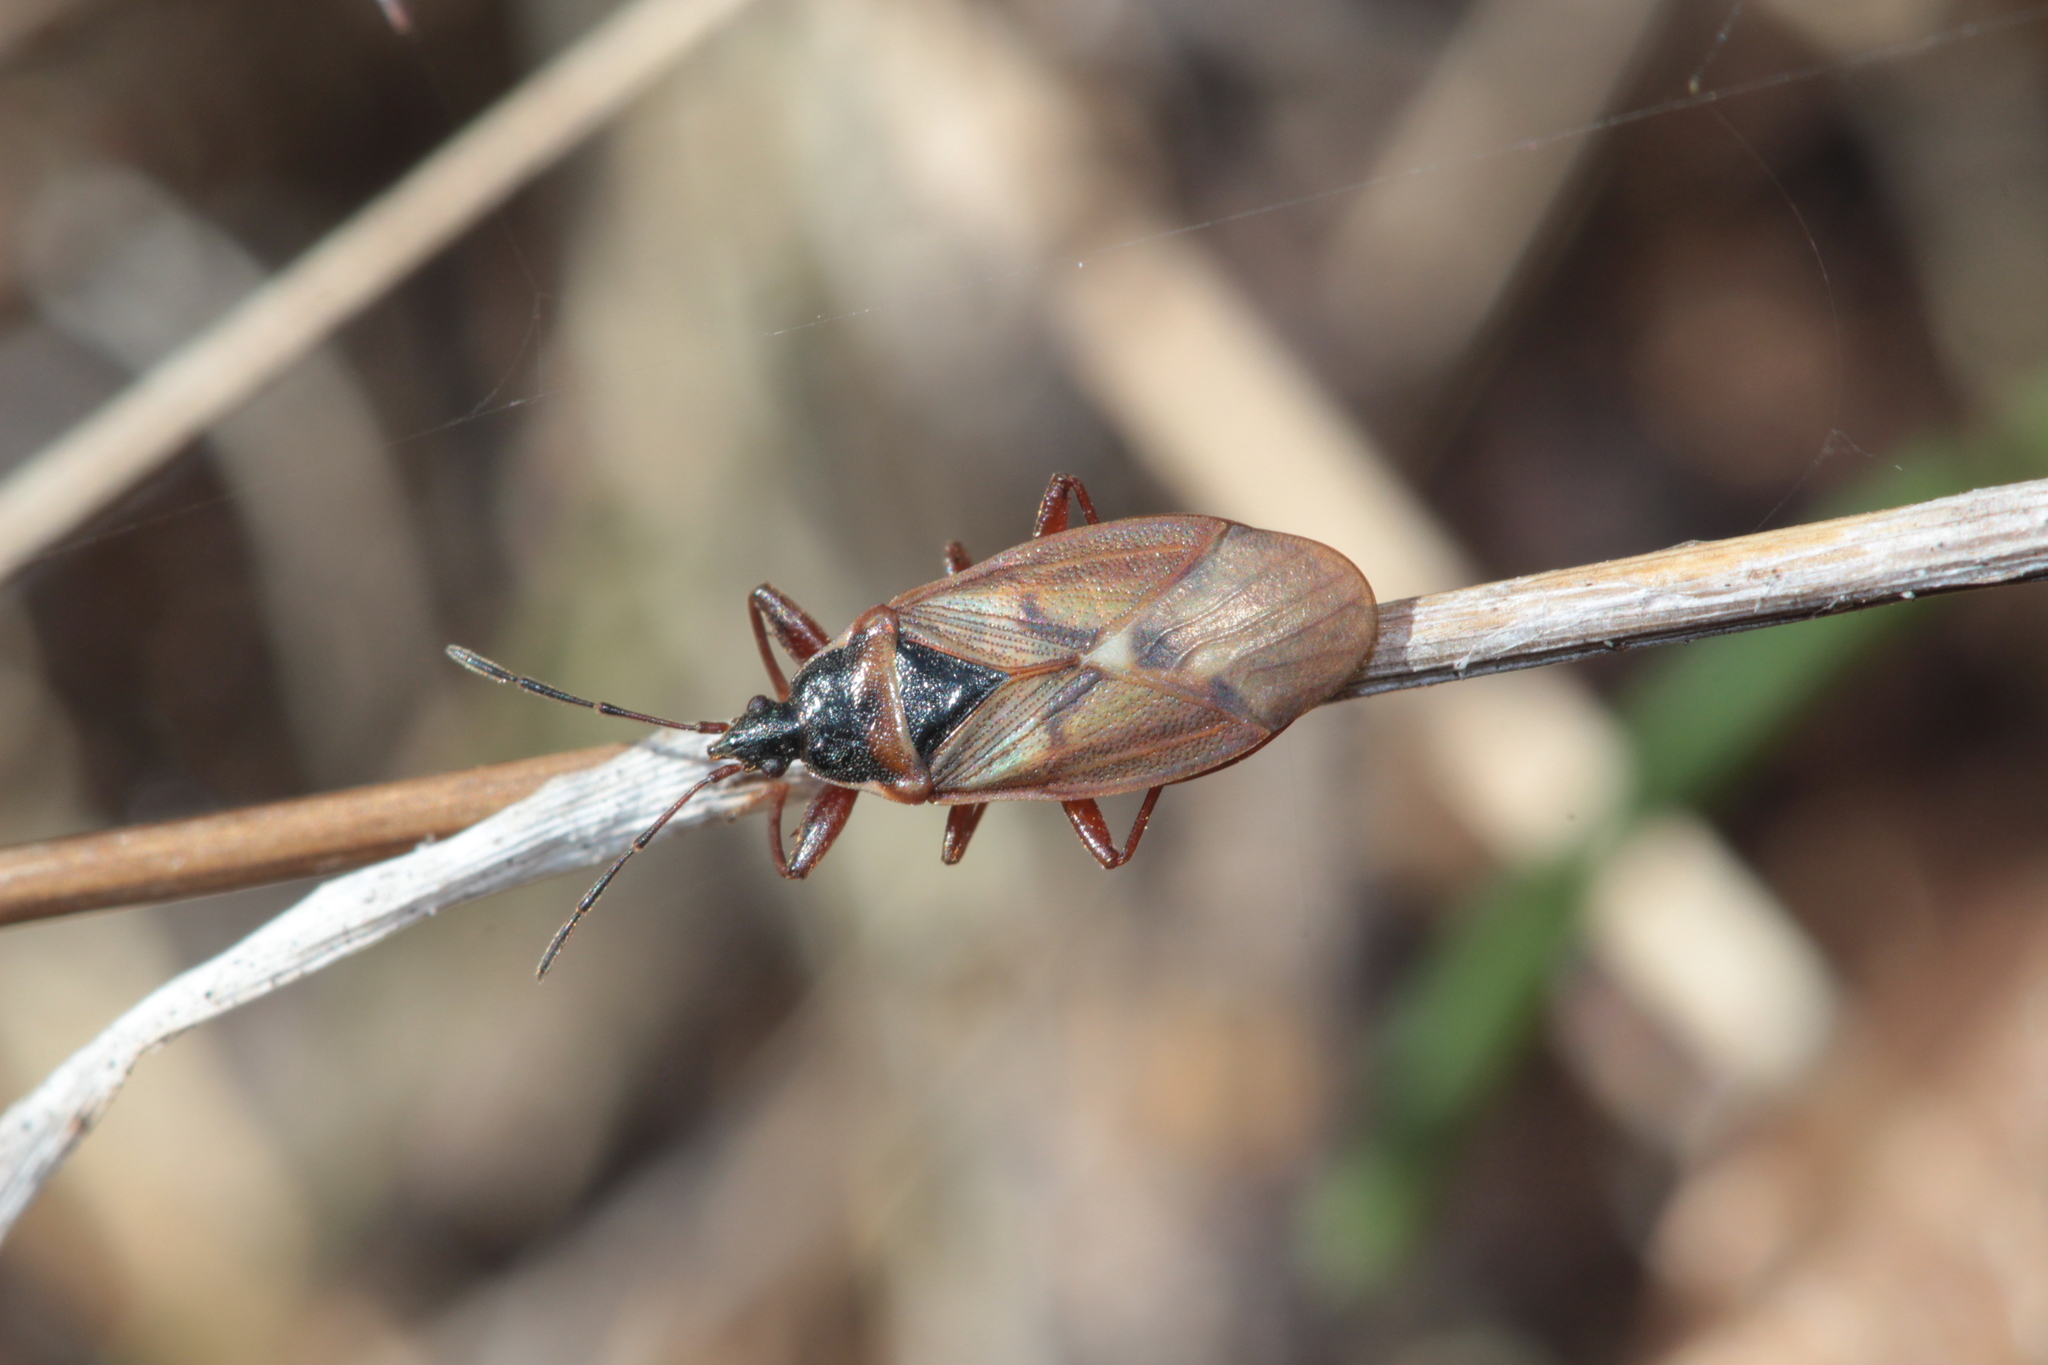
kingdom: Animalia
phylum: Arthropoda
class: Insecta
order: Hemiptera
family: Rhyparochromidae
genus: Gastrodes
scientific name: Gastrodes abietum
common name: Spruce cone bug
